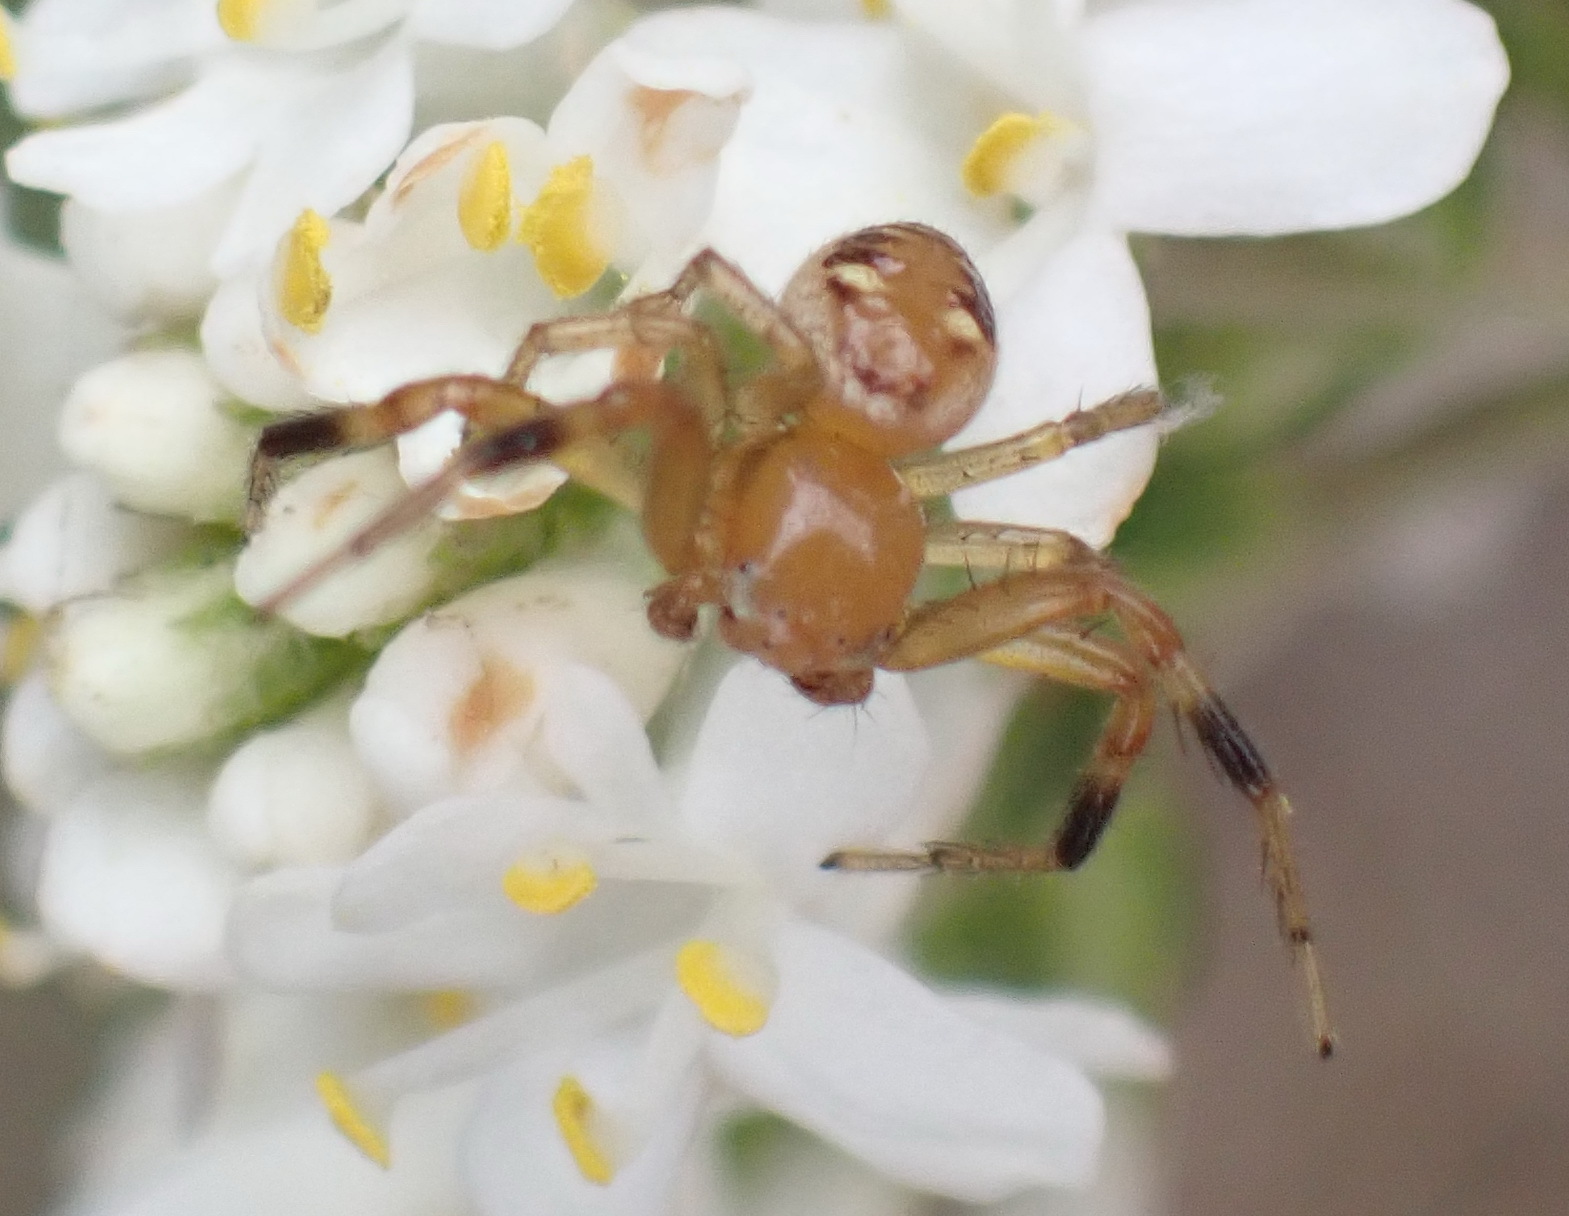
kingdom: Animalia
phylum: Arthropoda
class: Arachnida
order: Araneae
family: Thomisidae
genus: Synema
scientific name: Synema decens
